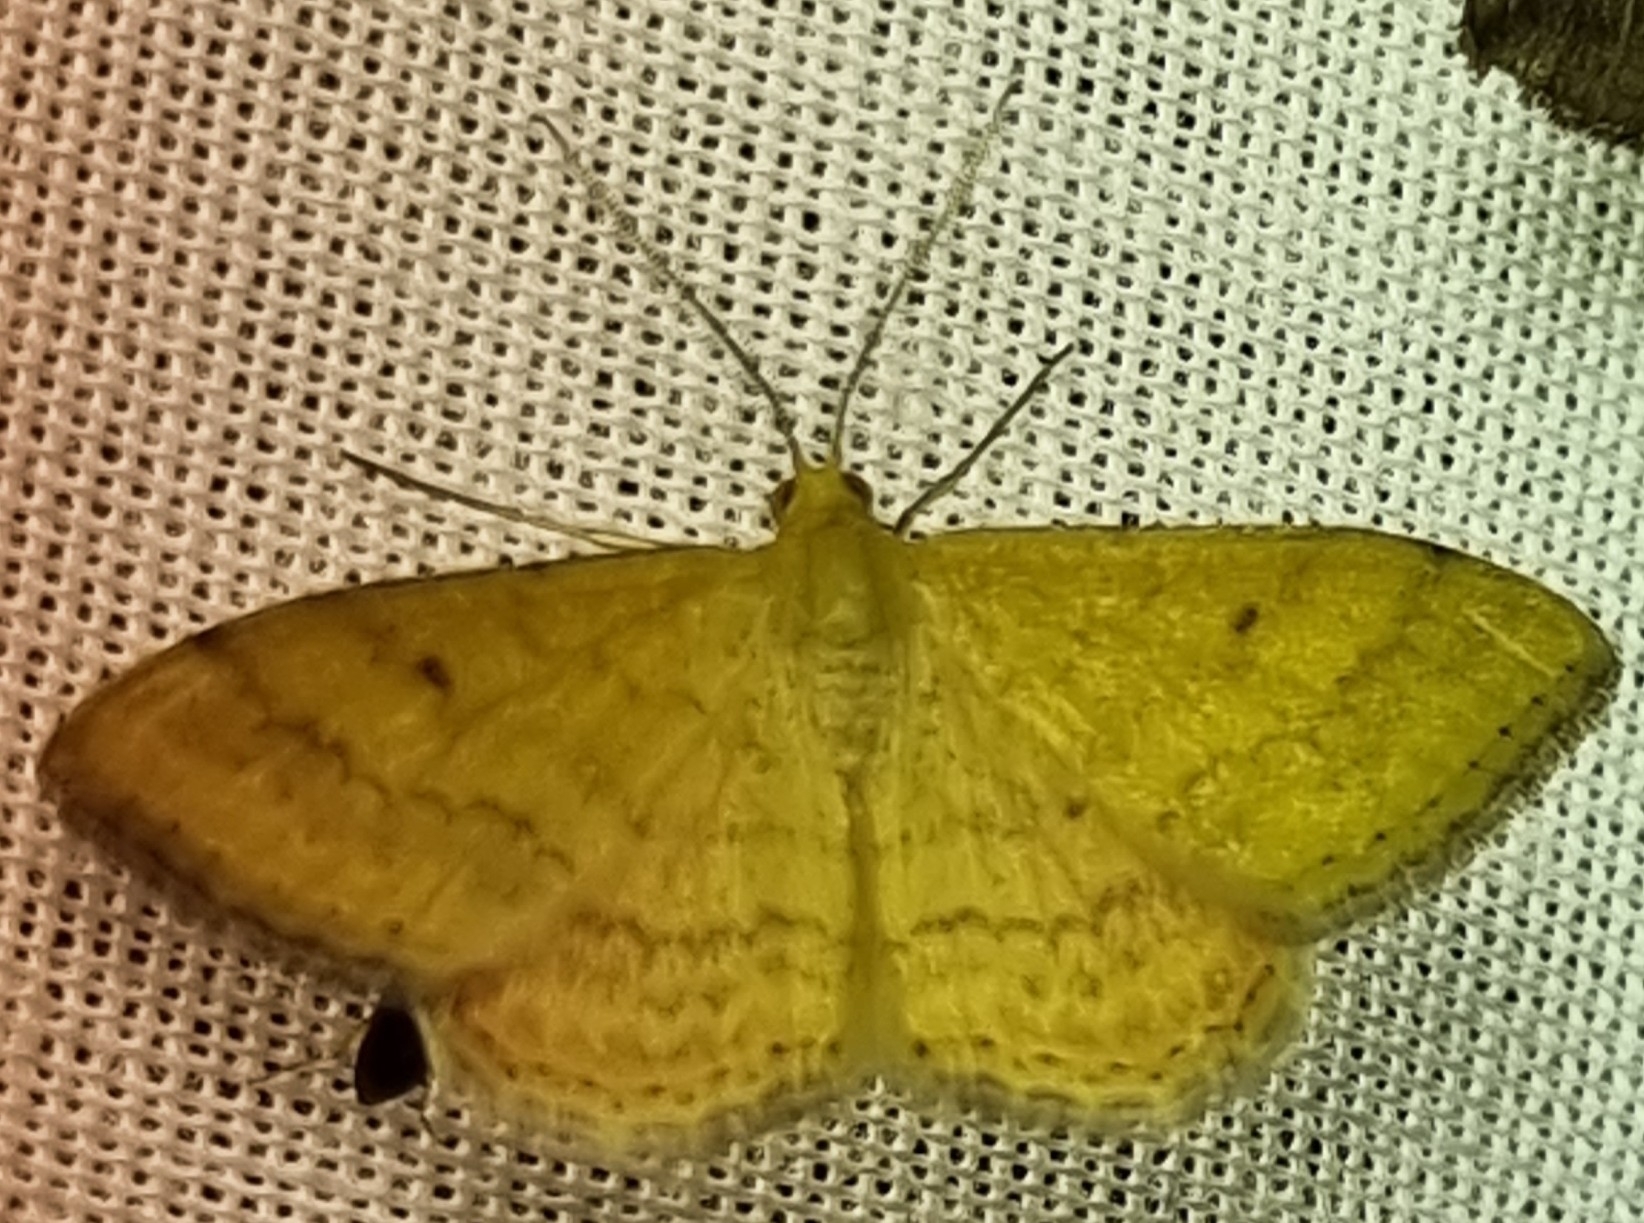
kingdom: Animalia
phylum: Arthropoda
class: Insecta
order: Lepidoptera
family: Geometridae
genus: Scopula
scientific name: Scopula rubraria
